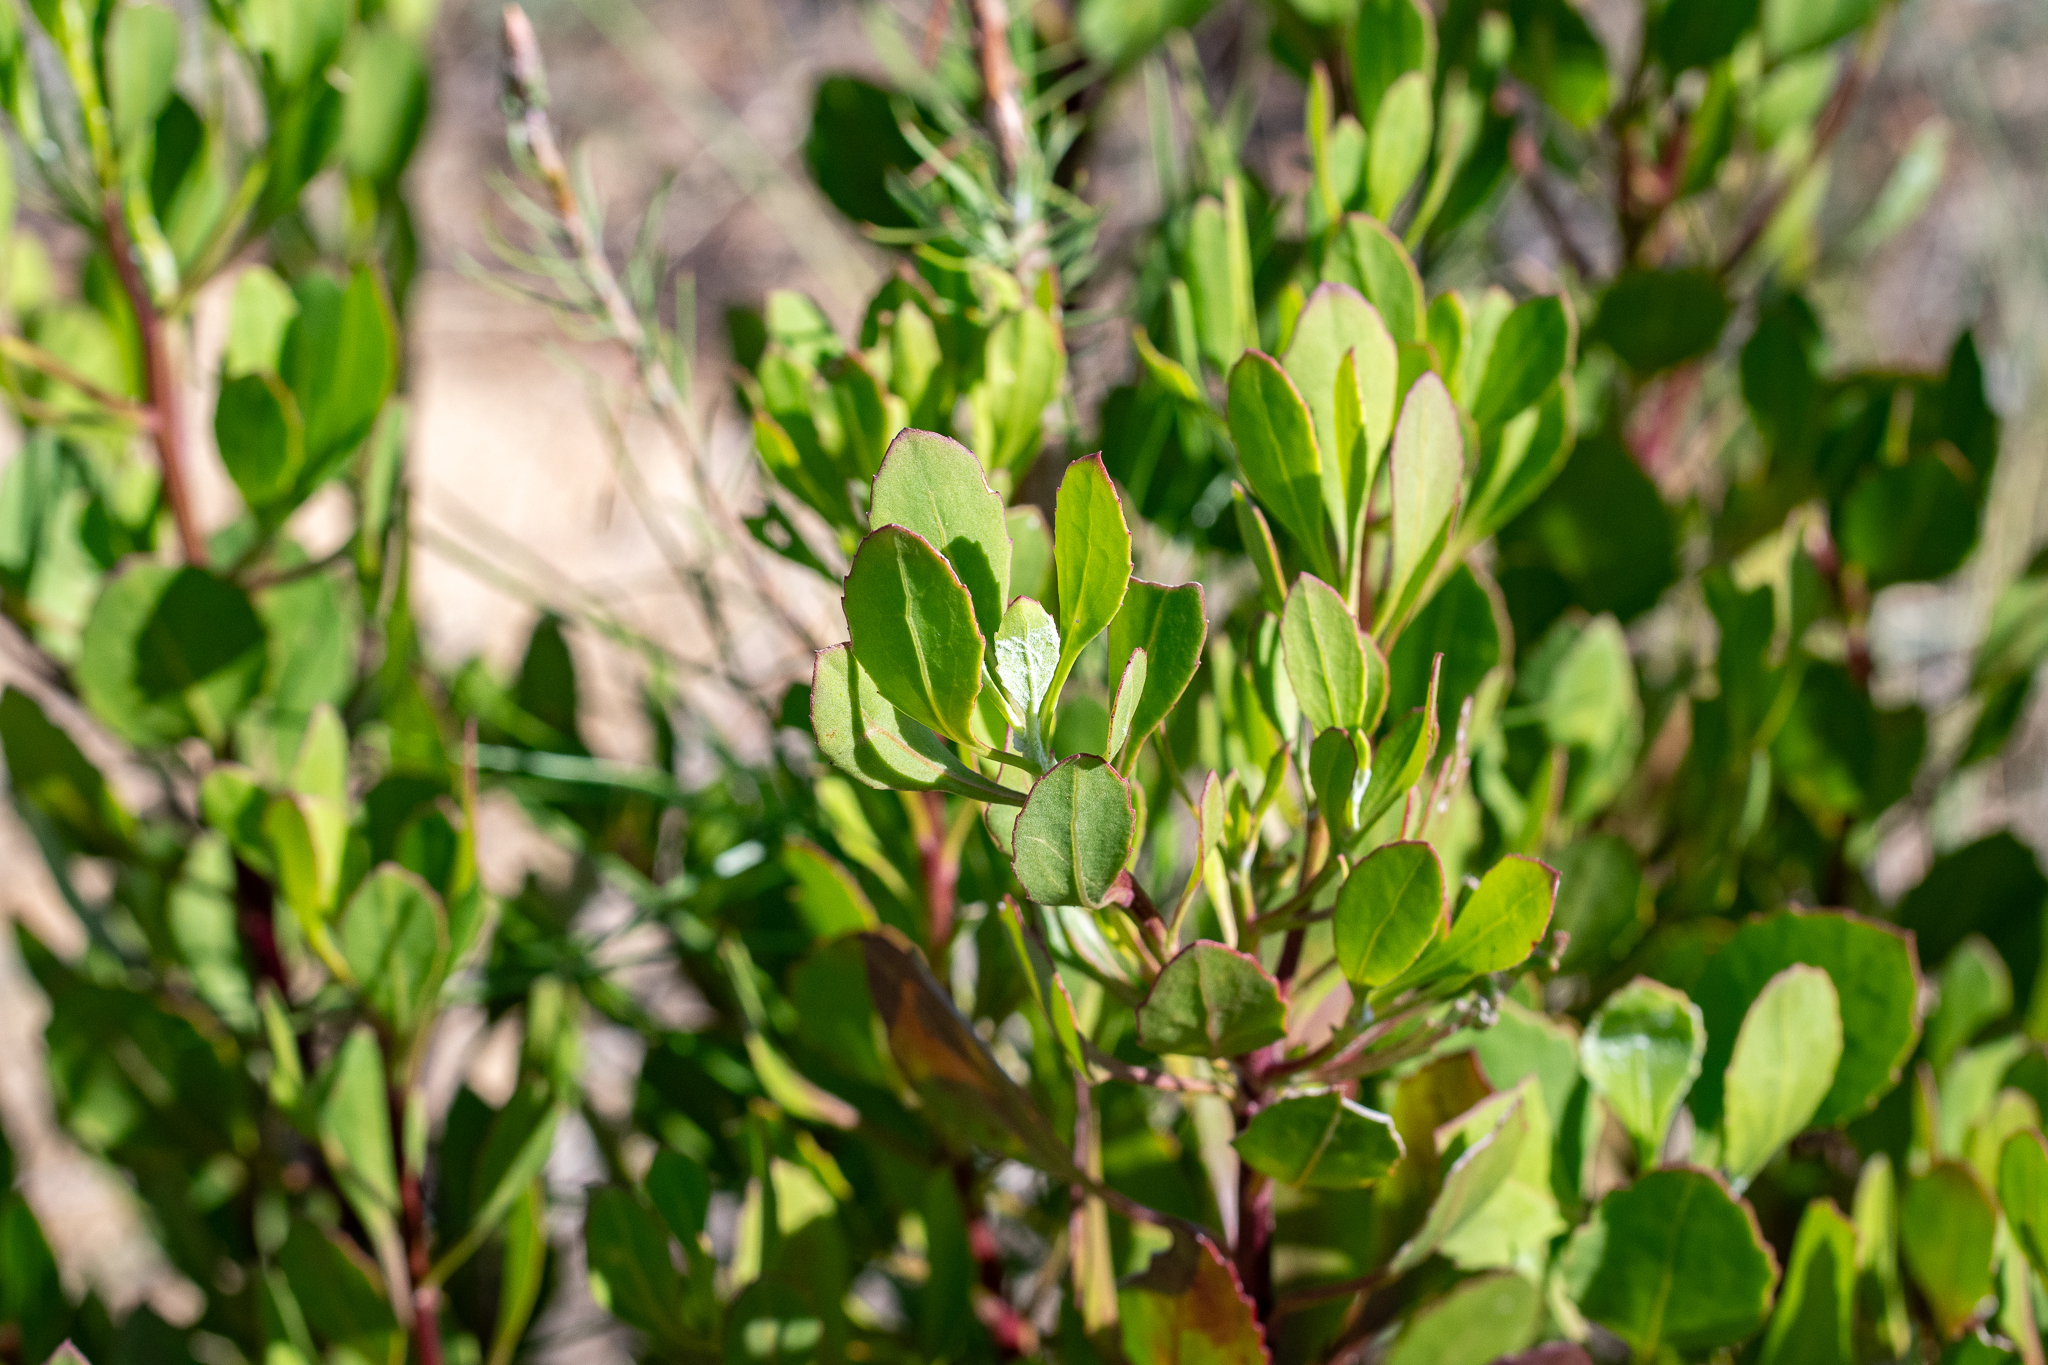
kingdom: Plantae
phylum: Tracheophyta
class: Magnoliopsida
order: Asterales
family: Asteraceae
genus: Osteospermum
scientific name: Osteospermum moniliferum
